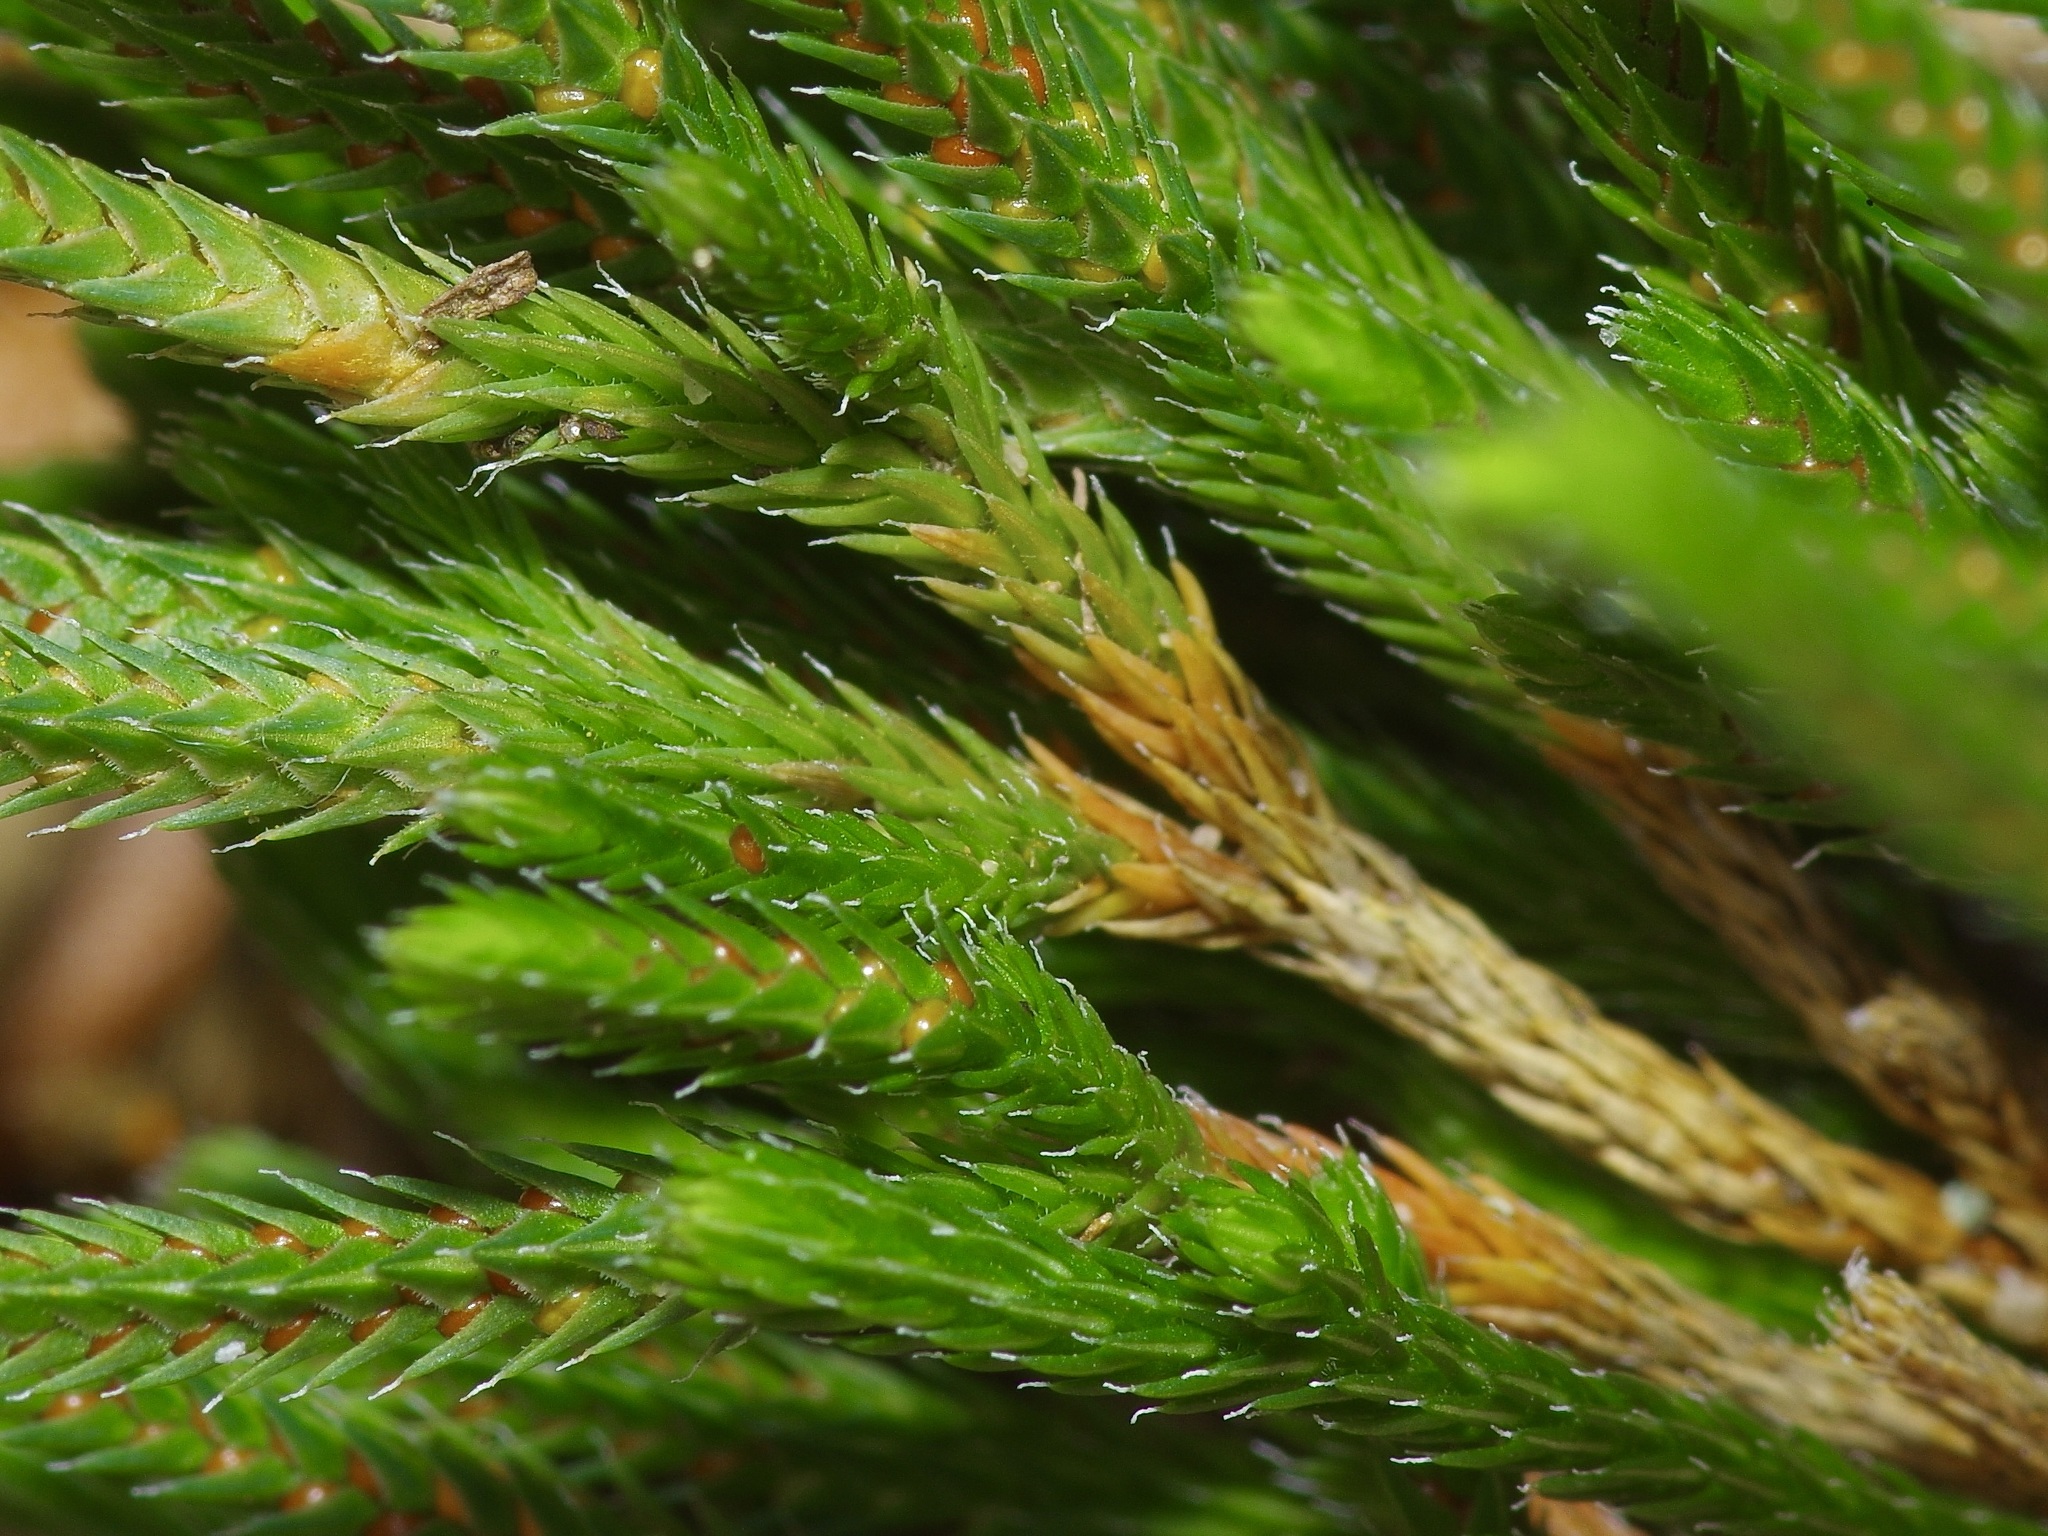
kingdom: Plantae
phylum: Tracheophyta
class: Lycopodiopsida
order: Selaginellales
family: Selaginellaceae
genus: Selaginella
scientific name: Selaginella corallina
